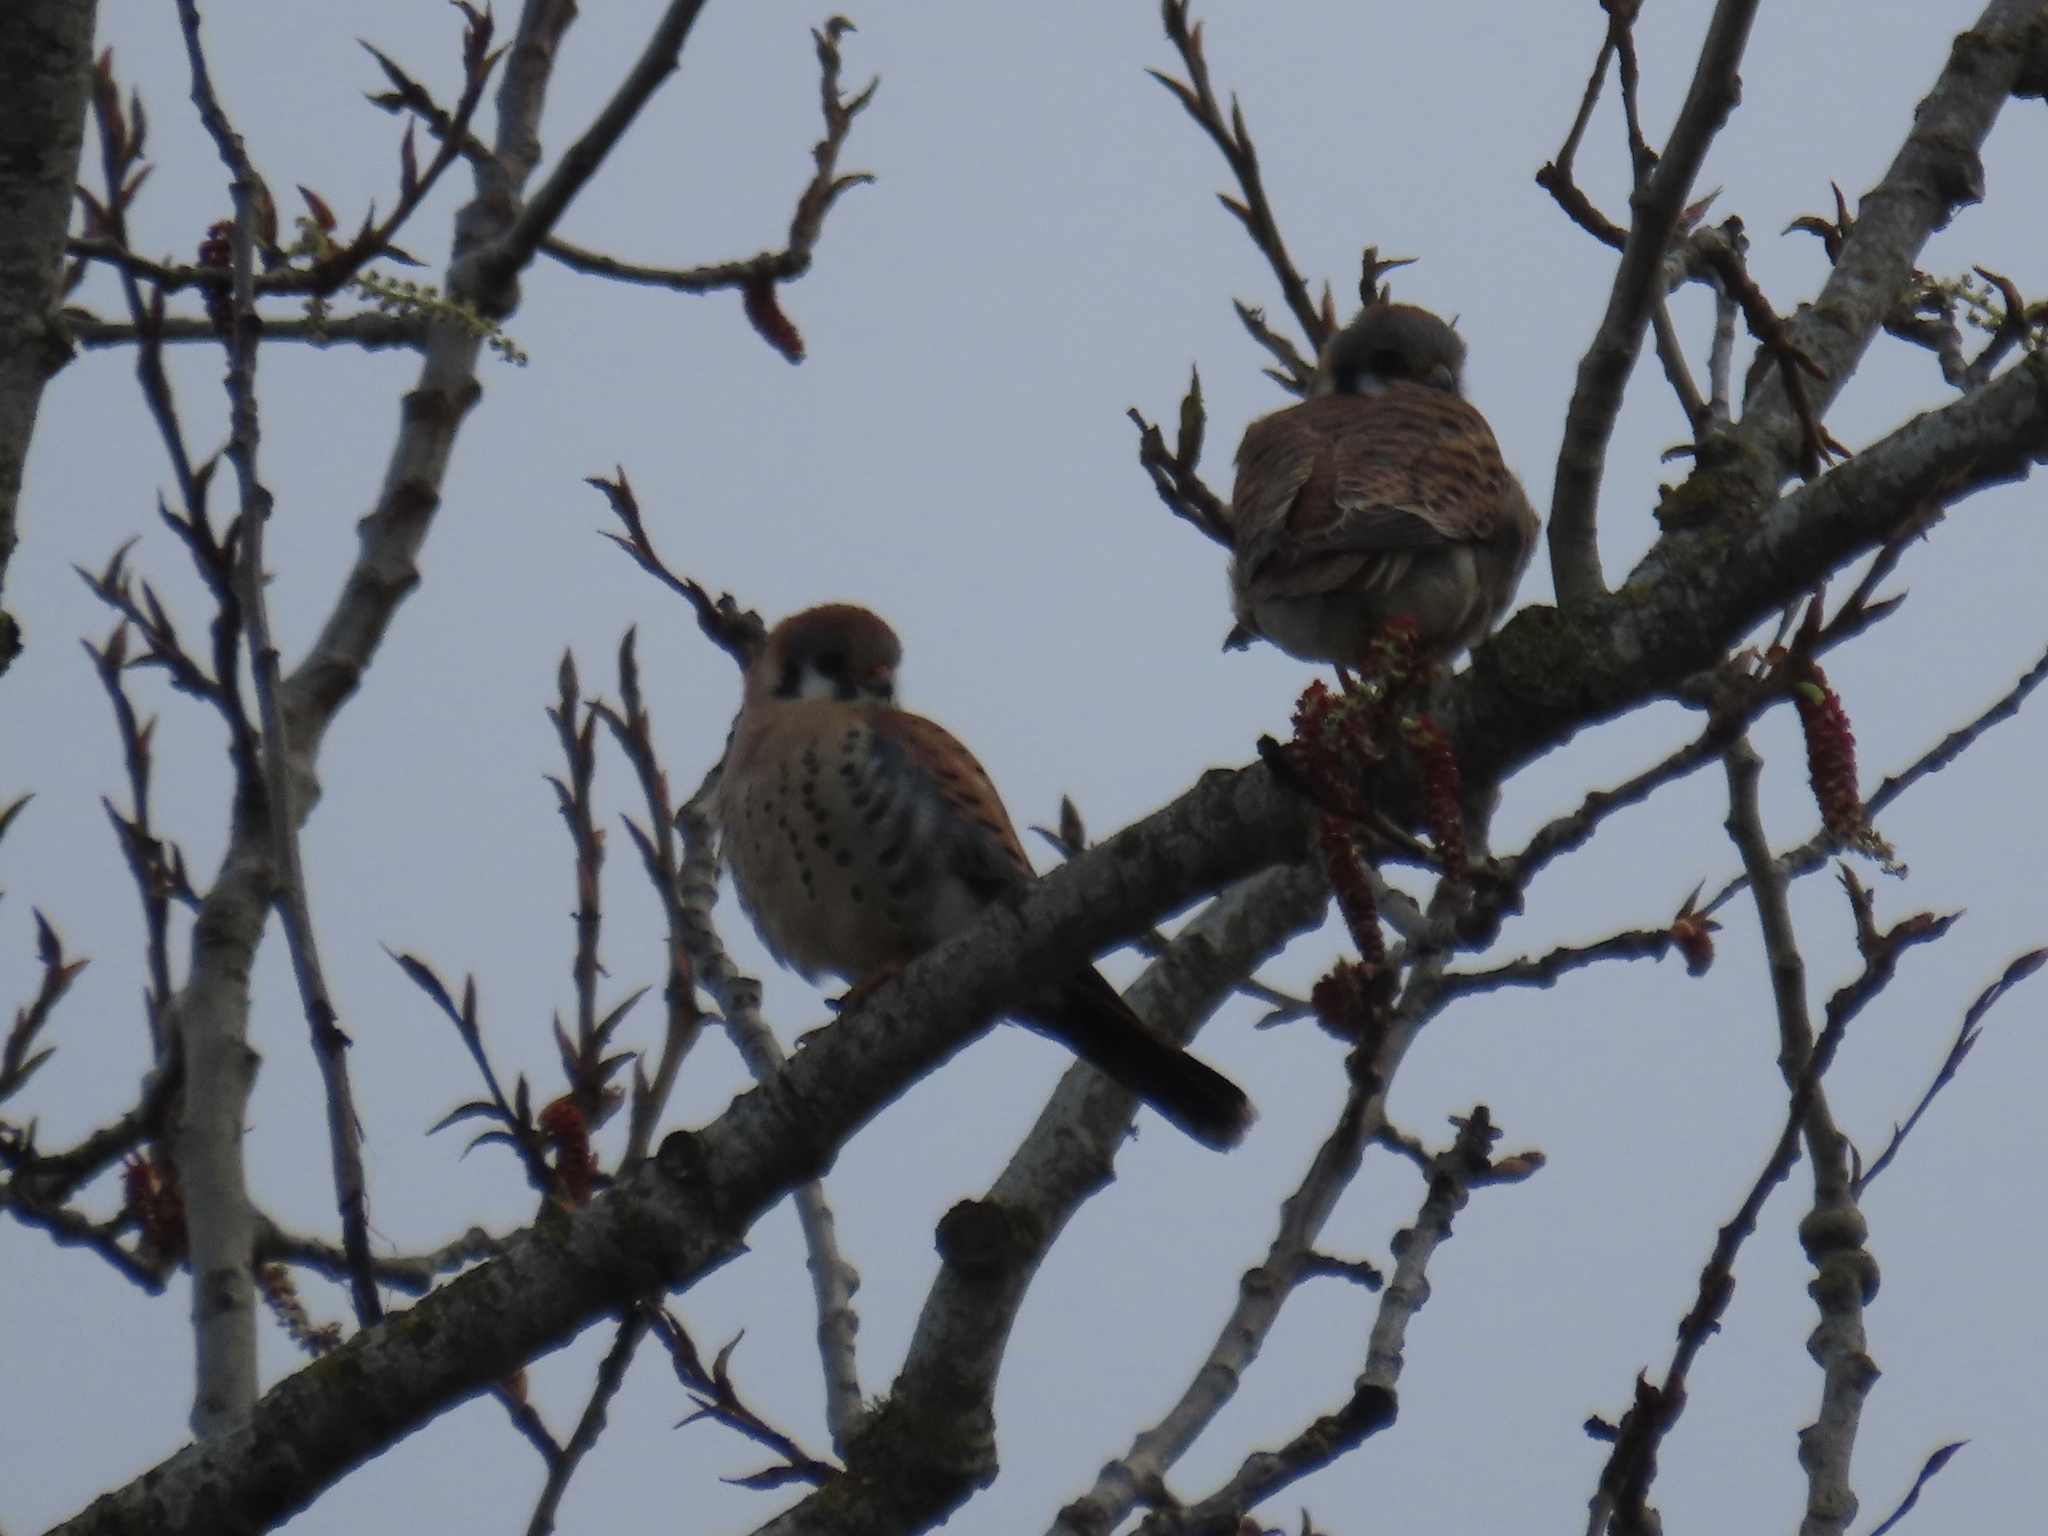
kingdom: Animalia
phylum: Chordata
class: Aves
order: Falconiformes
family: Falconidae
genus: Falco
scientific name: Falco sparverius
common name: American kestrel
